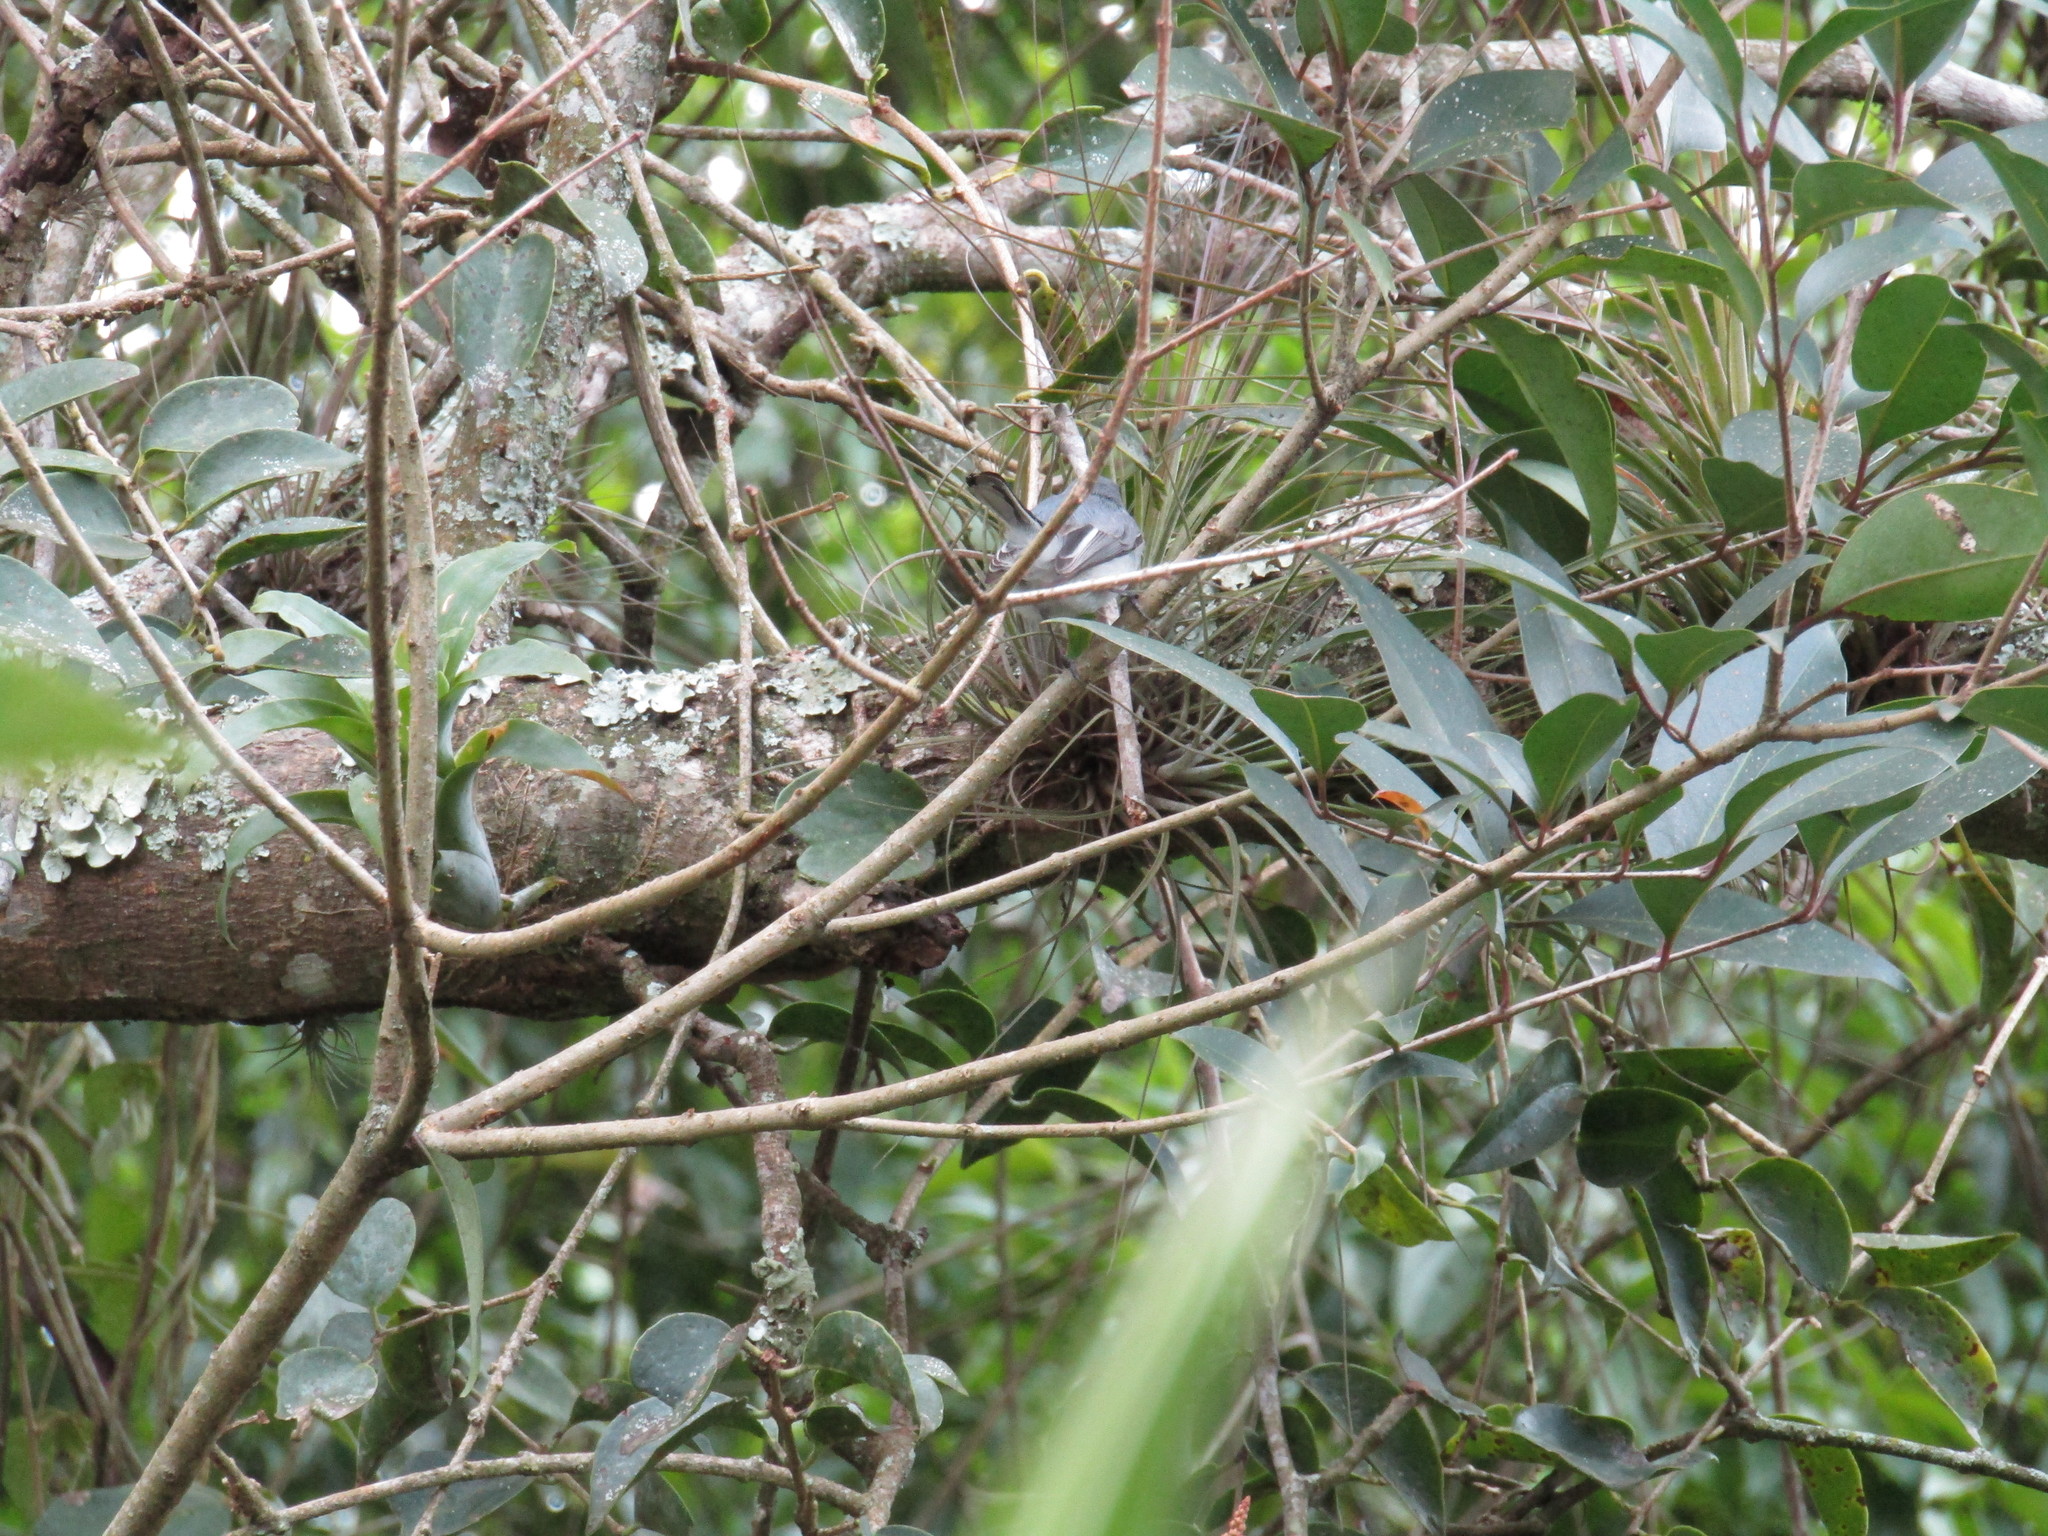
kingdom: Animalia
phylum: Chordata
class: Aves
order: Passeriformes
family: Polioptilidae
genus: Polioptila
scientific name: Polioptila caerulea
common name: Blue-gray gnatcatcher
